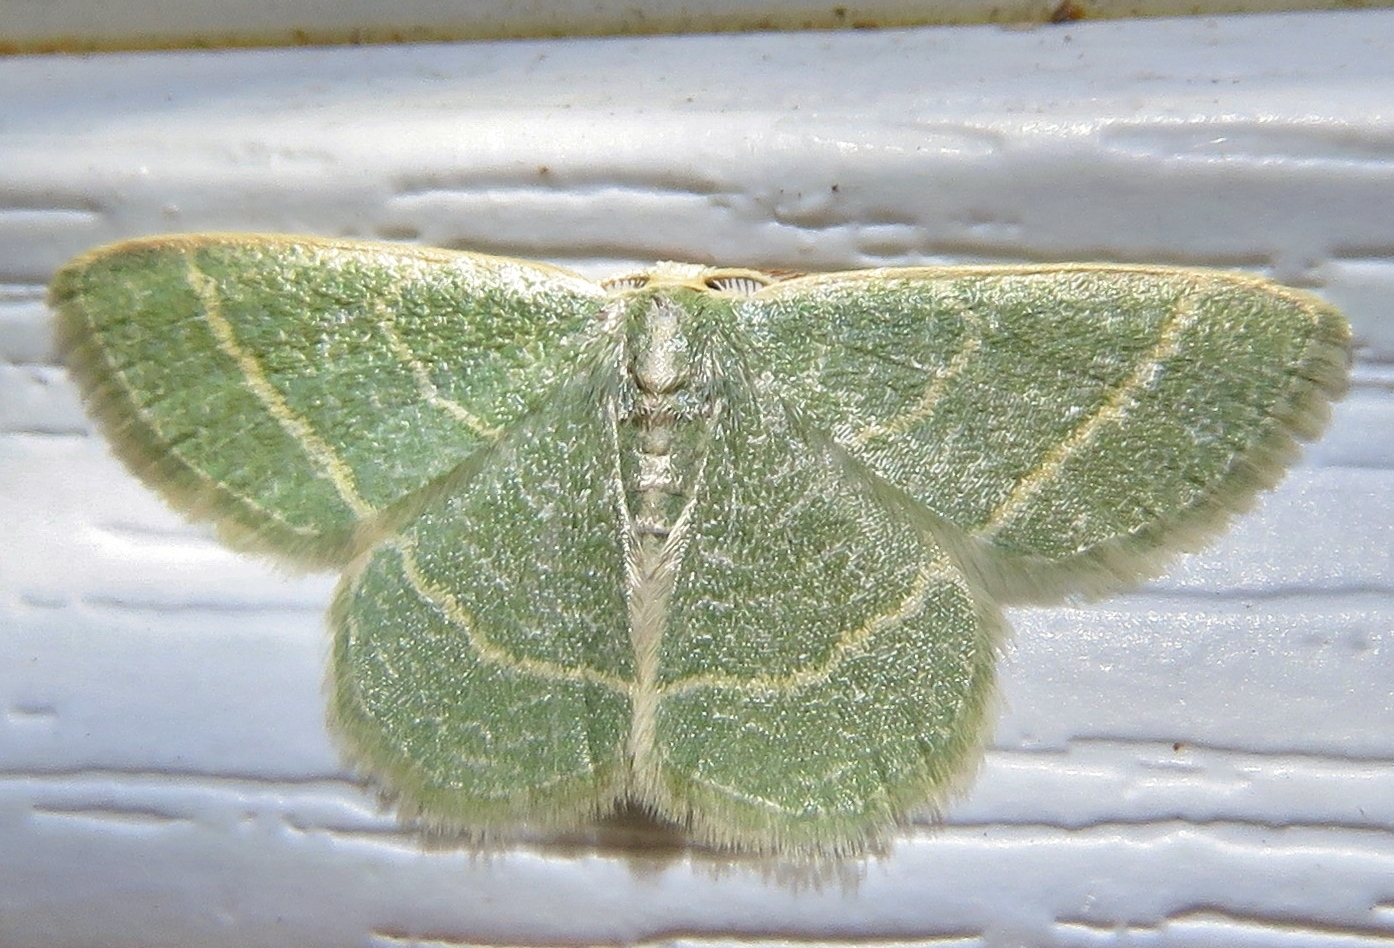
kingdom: Animalia
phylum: Arthropoda
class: Insecta
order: Lepidoptera
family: Geometridae
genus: Chlorochlamys
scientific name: Chlorochlamys chloroleucaria
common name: Blackberry looper
